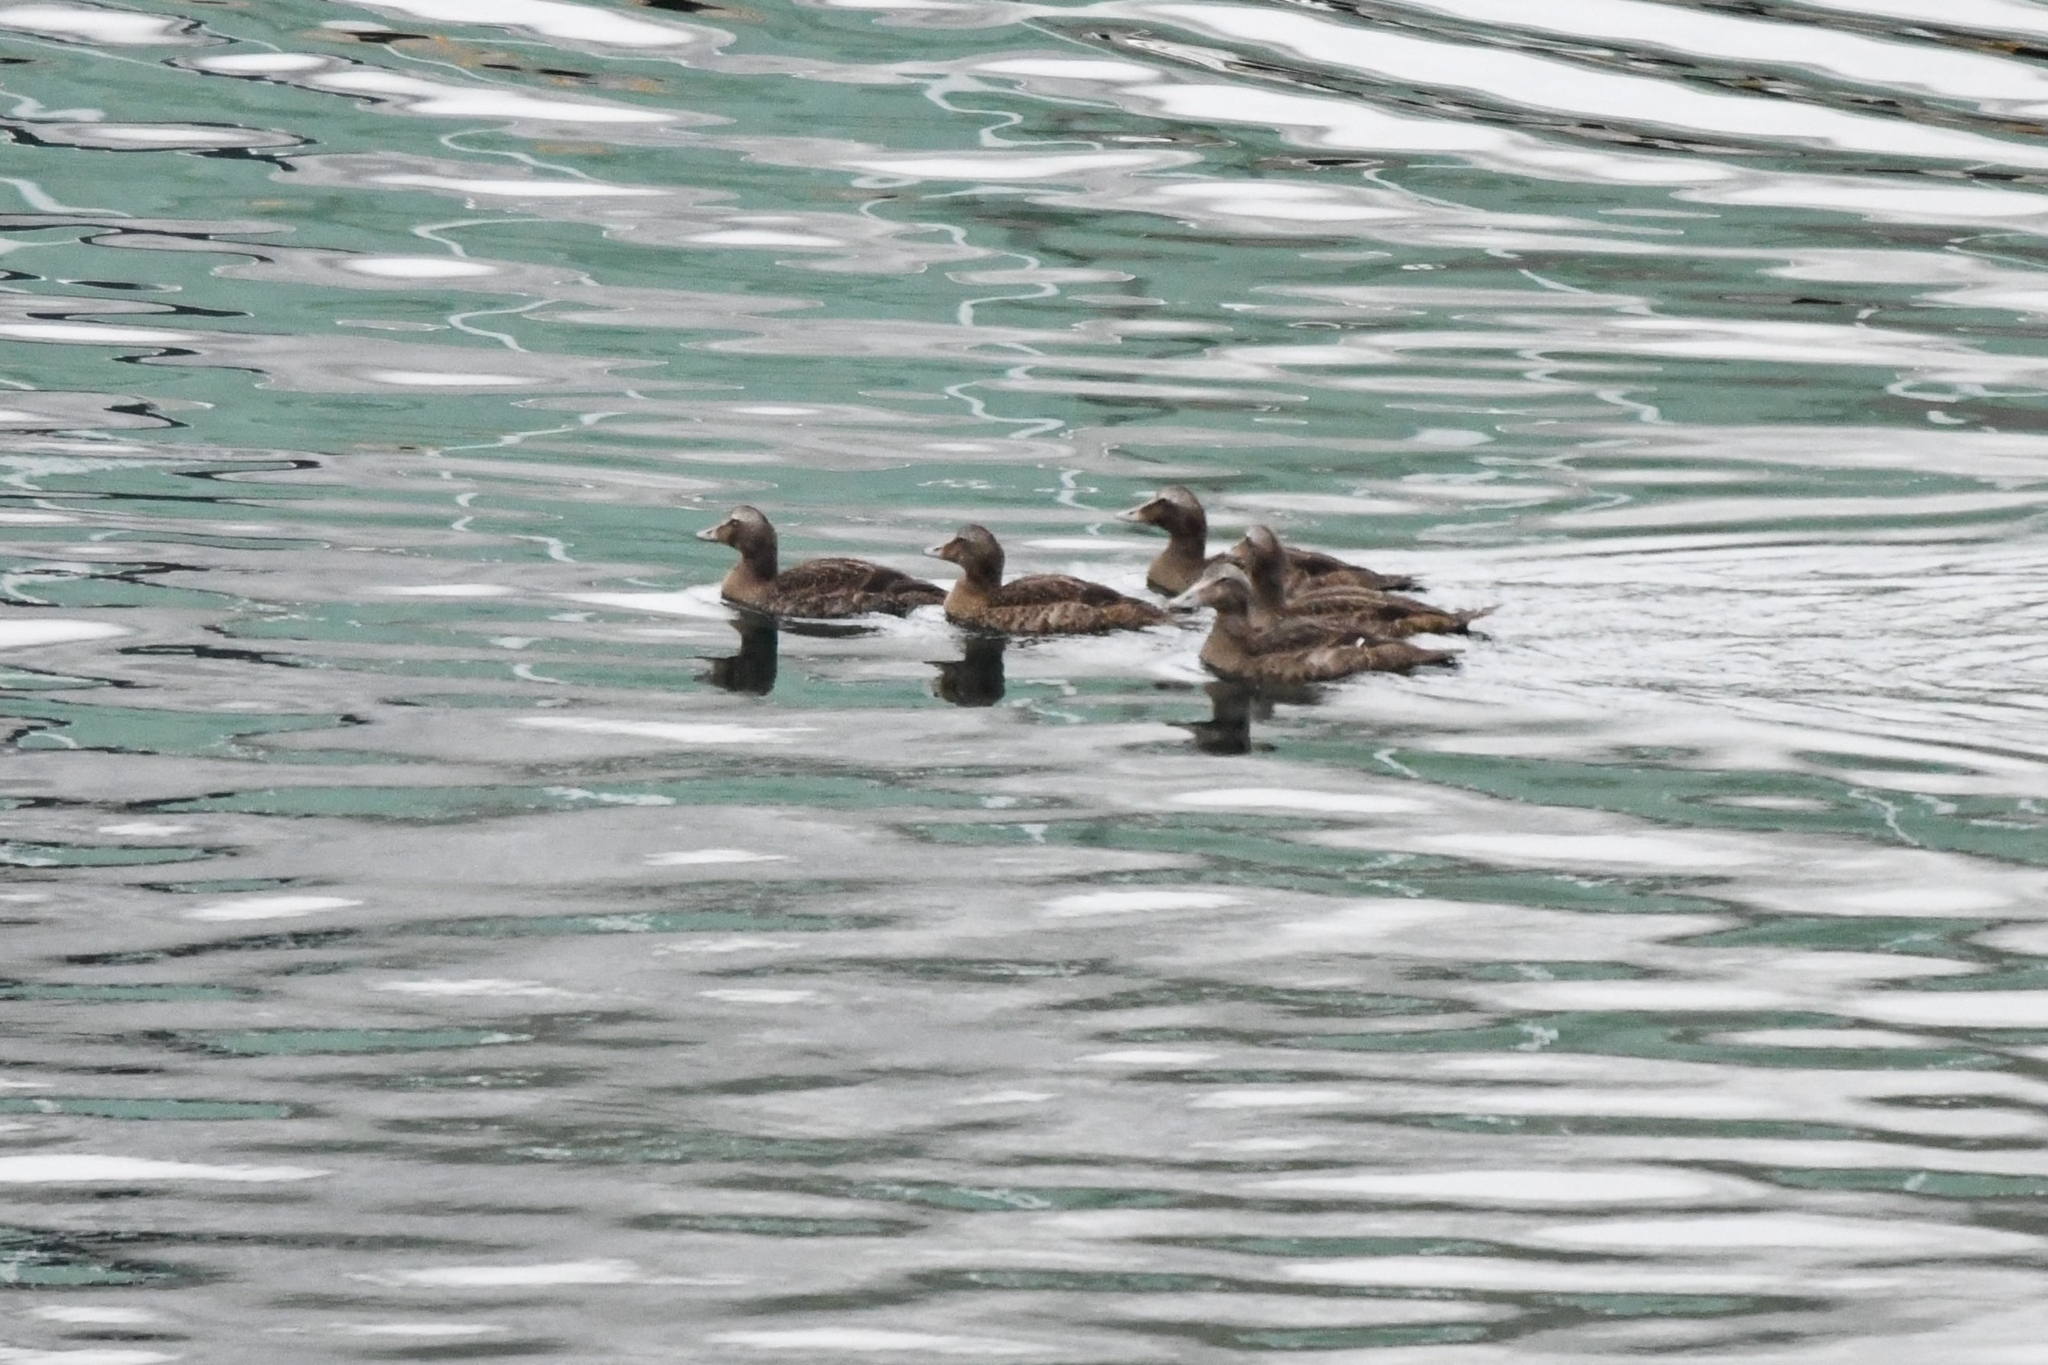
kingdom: Animalia
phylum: Chordata
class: Aves
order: Anseriformes
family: Anatidae
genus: Somateria
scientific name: Somateria mollissima
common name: Common eider
